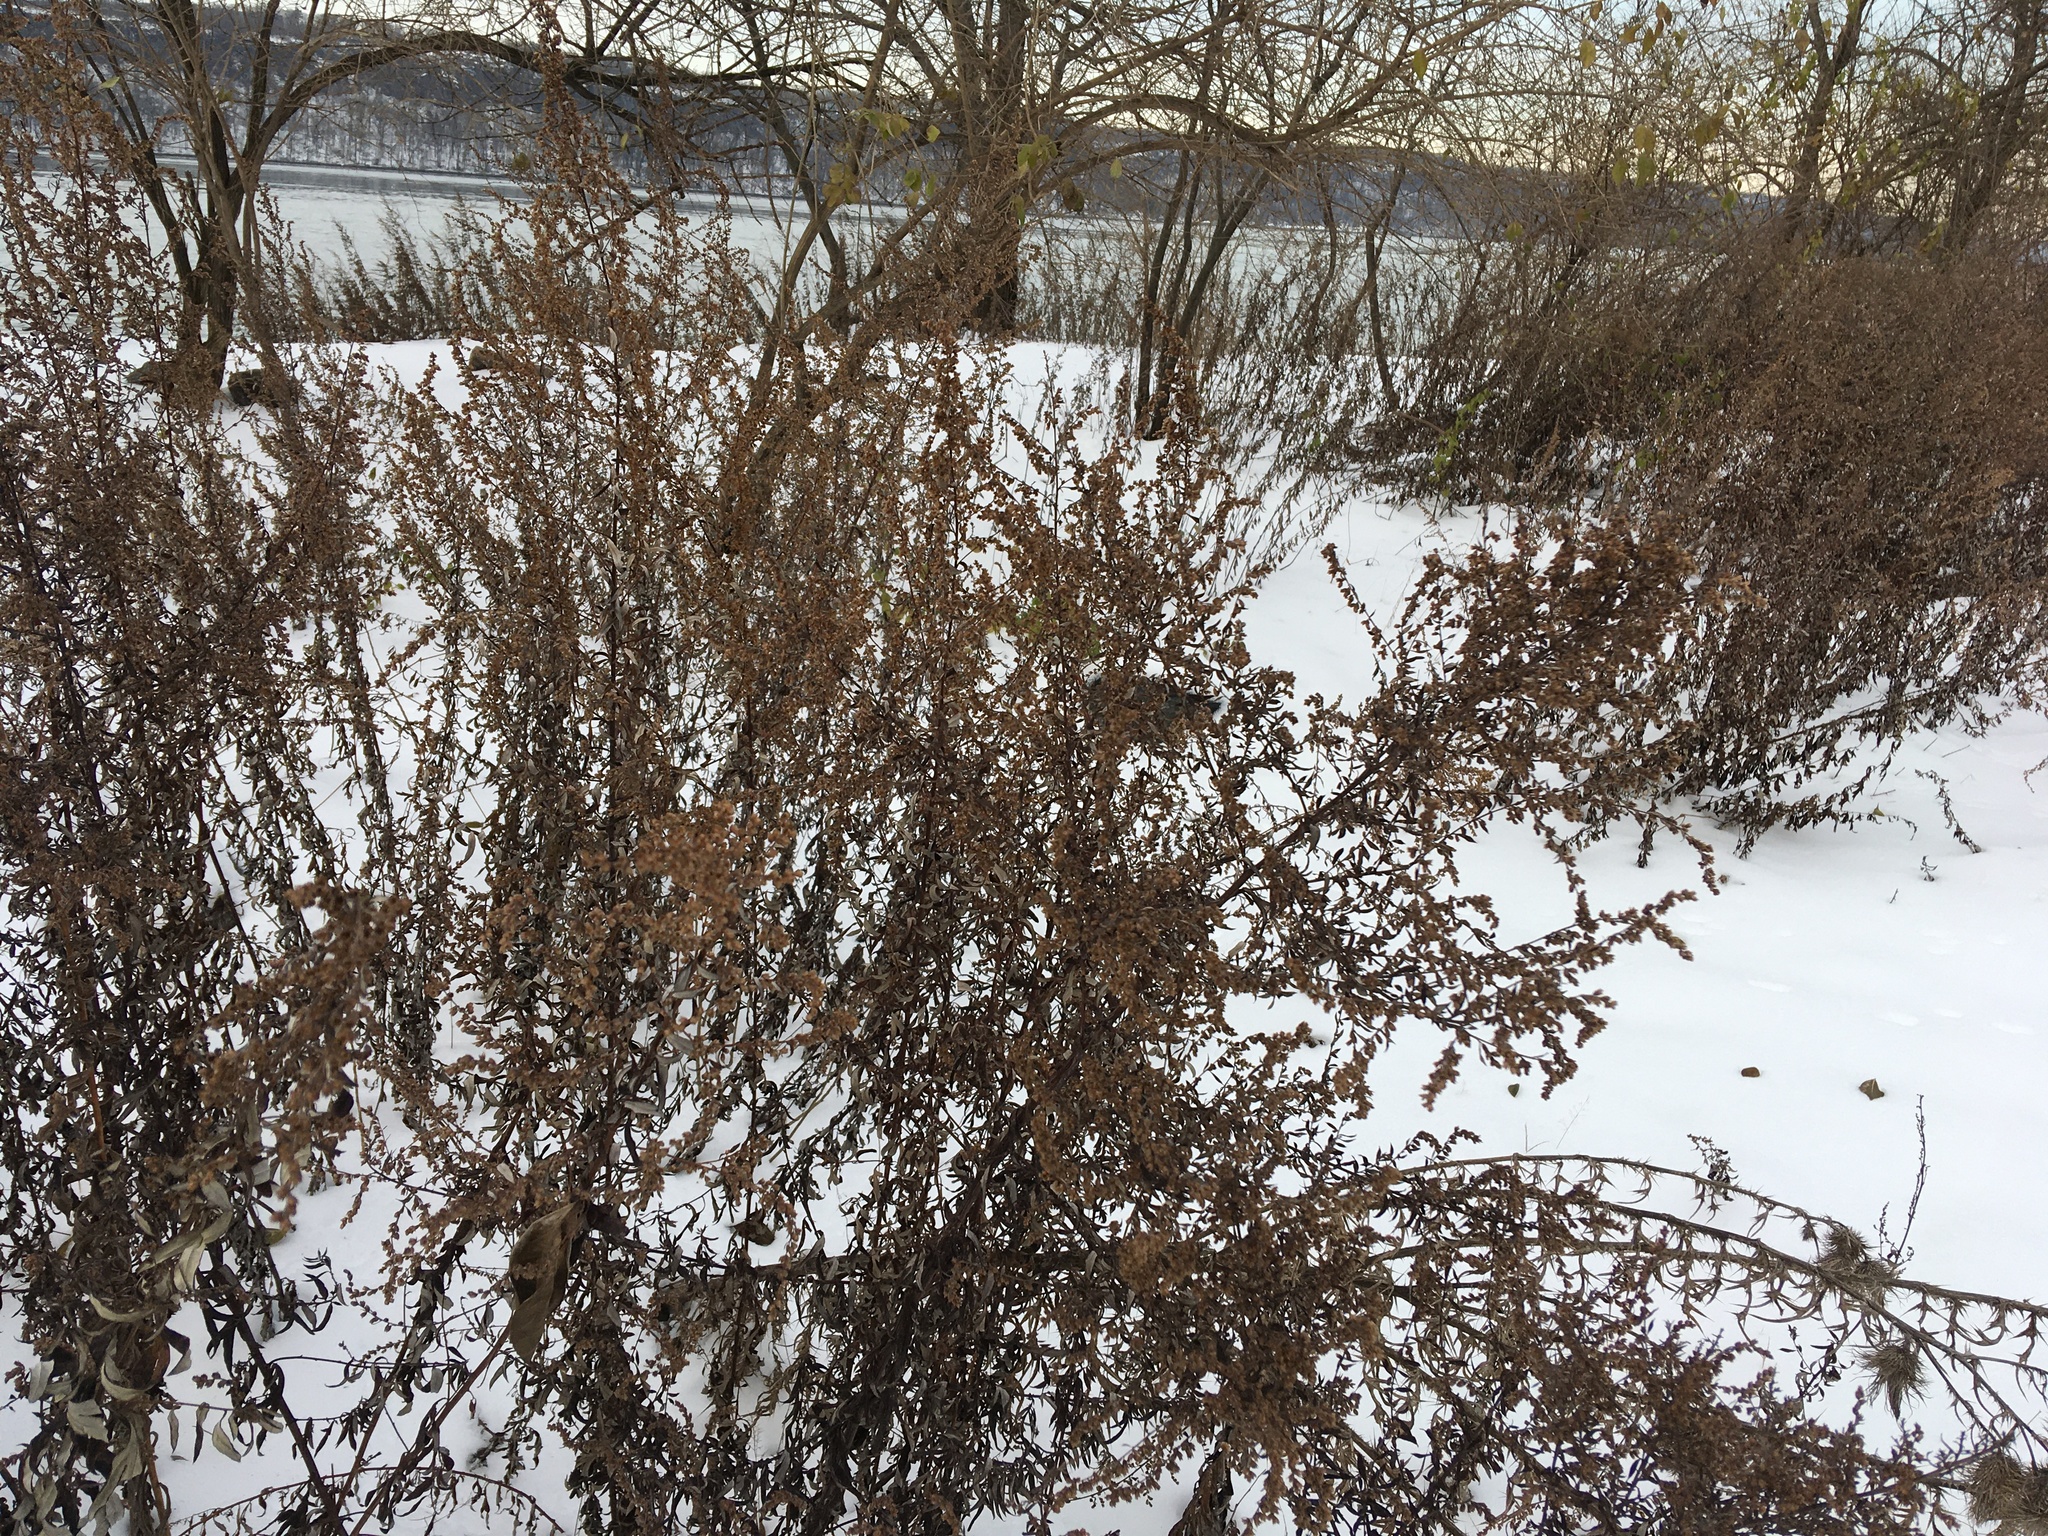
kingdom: Plantae
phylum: Tracheophyta
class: Magnoliopsida
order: Asterales
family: Asteraceae
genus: Artemisia
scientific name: Artemisia vulgaris
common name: Mugwort
